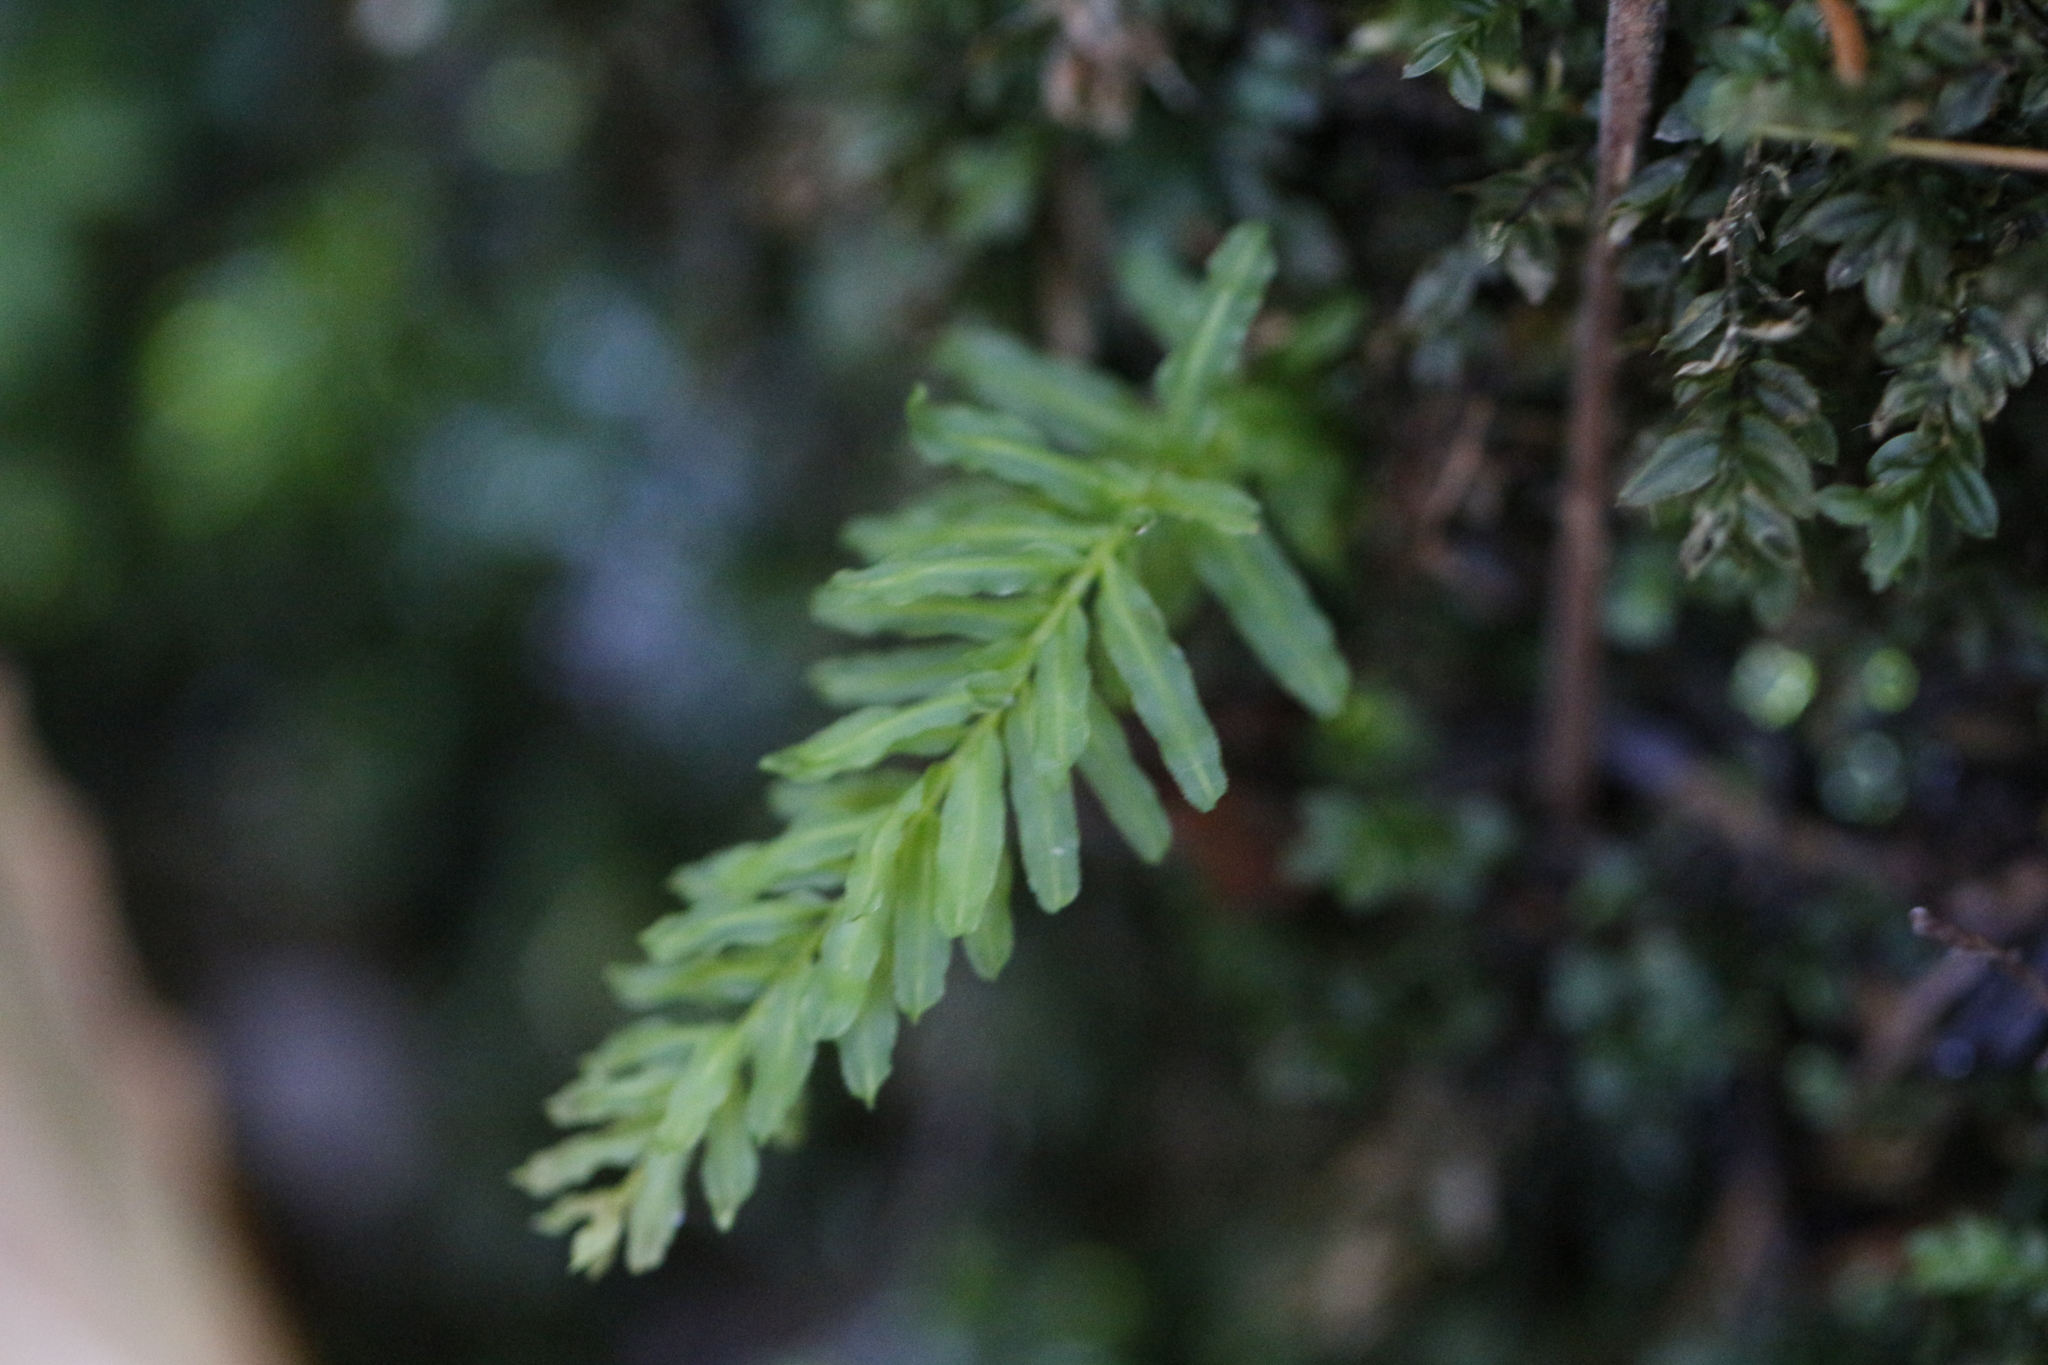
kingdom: Plantae
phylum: Bryophyta
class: Bryopsida
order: Bryales
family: Mniaceae
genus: Plagiomnium
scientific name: Plagiomnium undulatum
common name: Hart's-tongue thyme-moss
